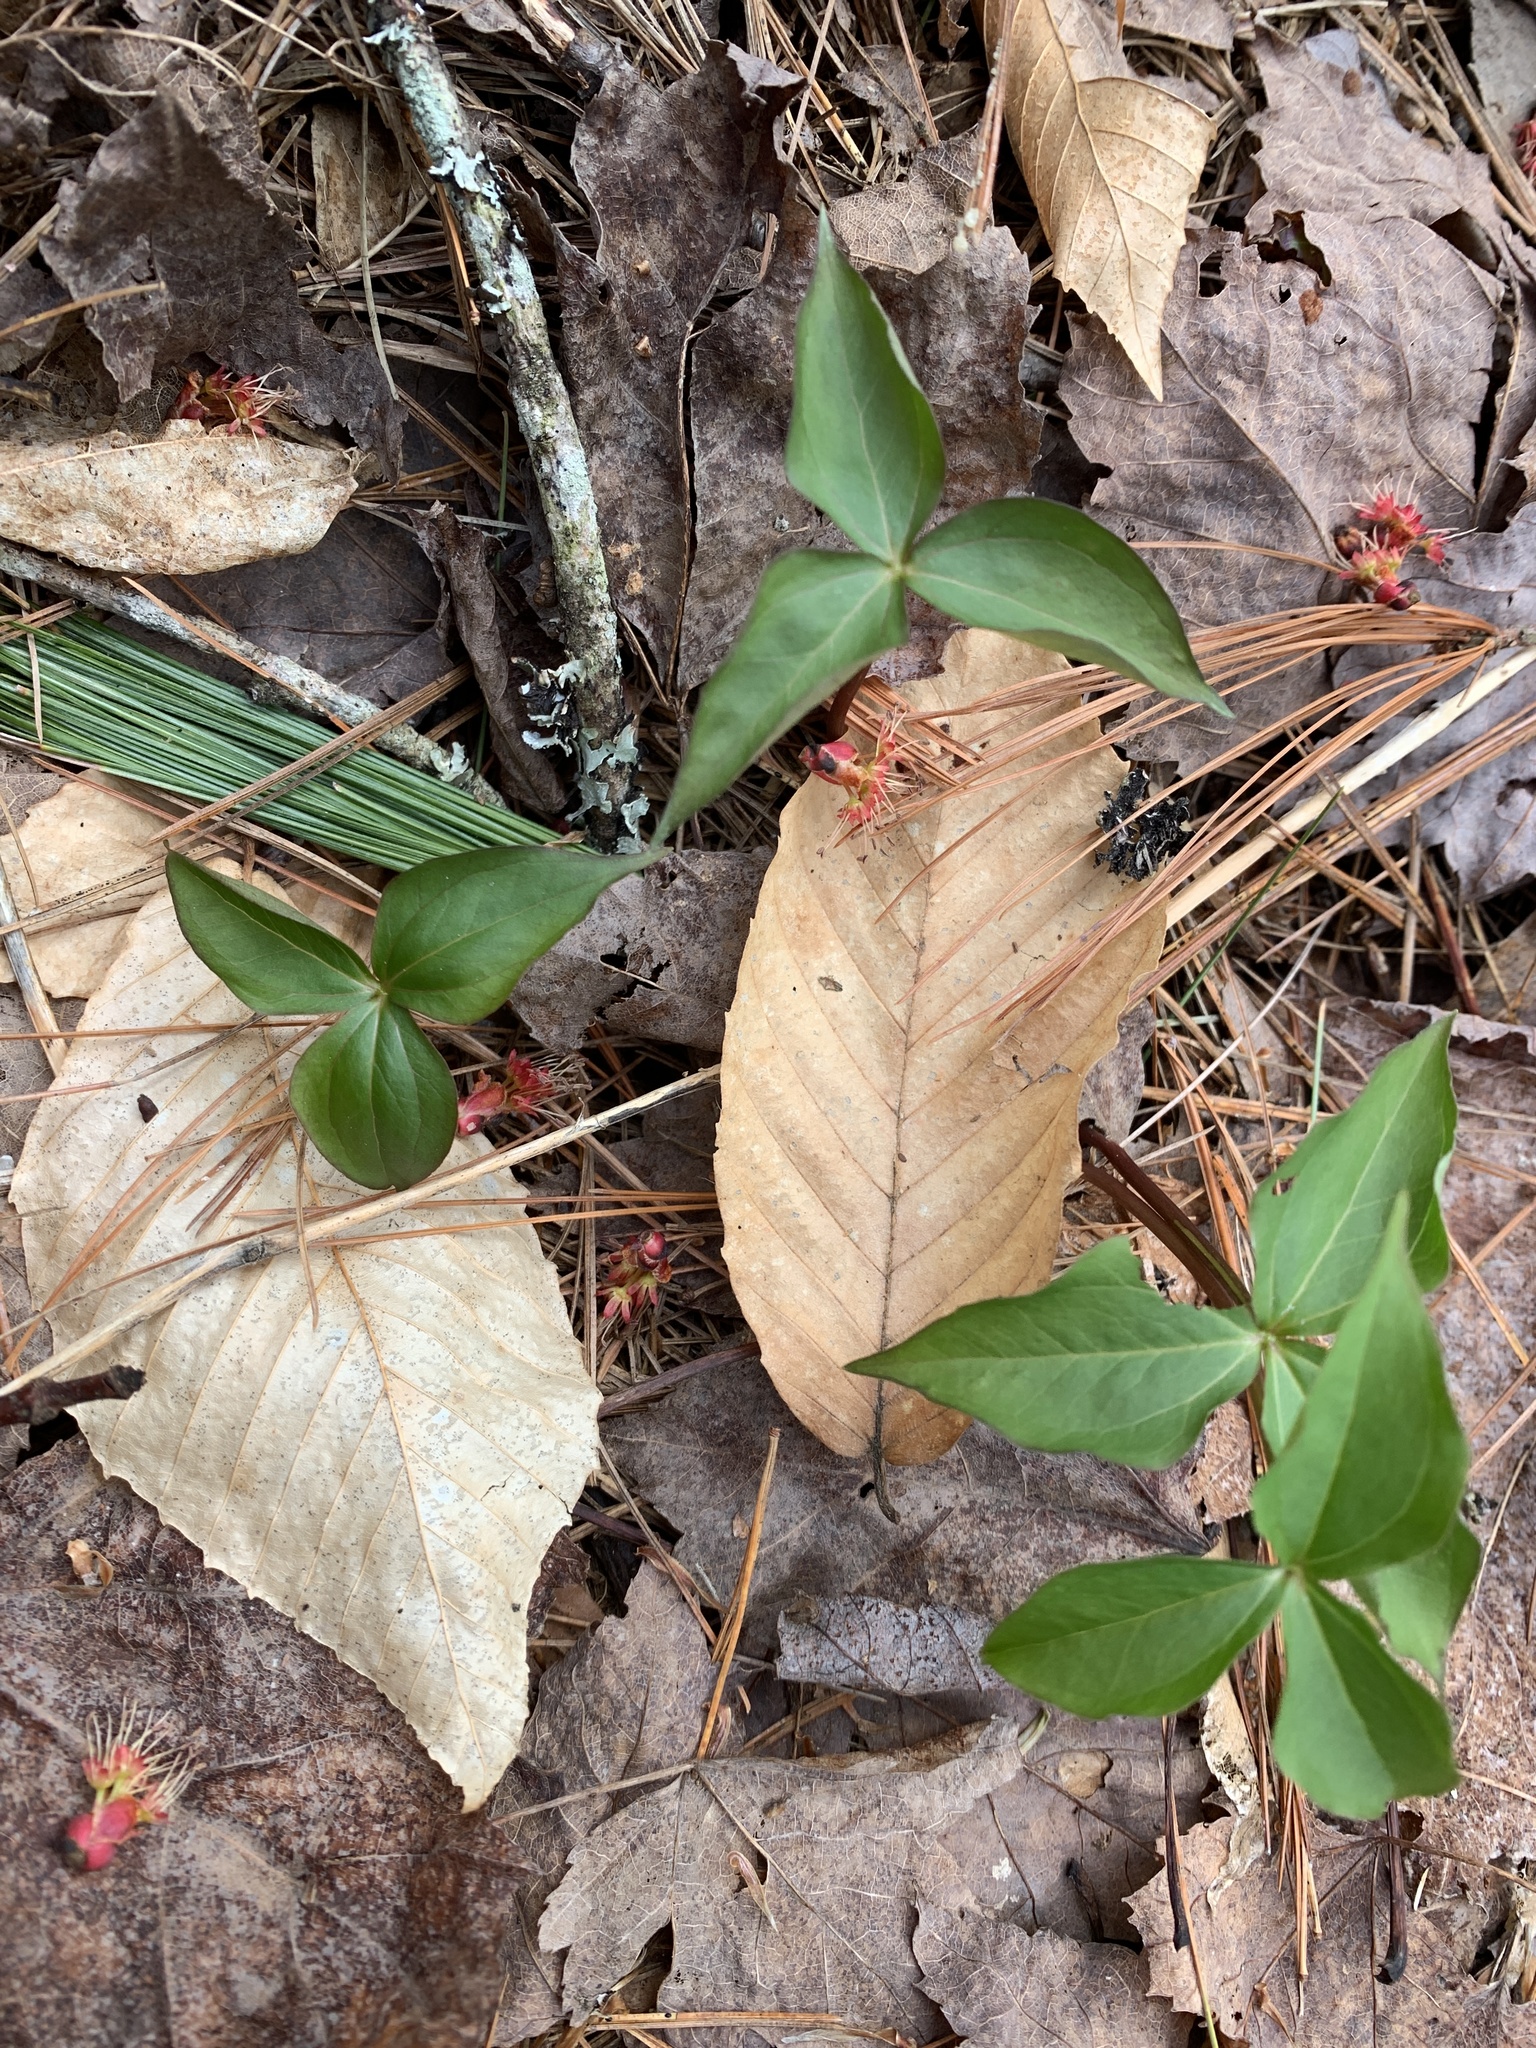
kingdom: Plantae
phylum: Tracheophyta
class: Liliopsida
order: Liliales
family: Melanthiaceae
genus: Trillium
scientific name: Trillium erectum
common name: Purple trillium
